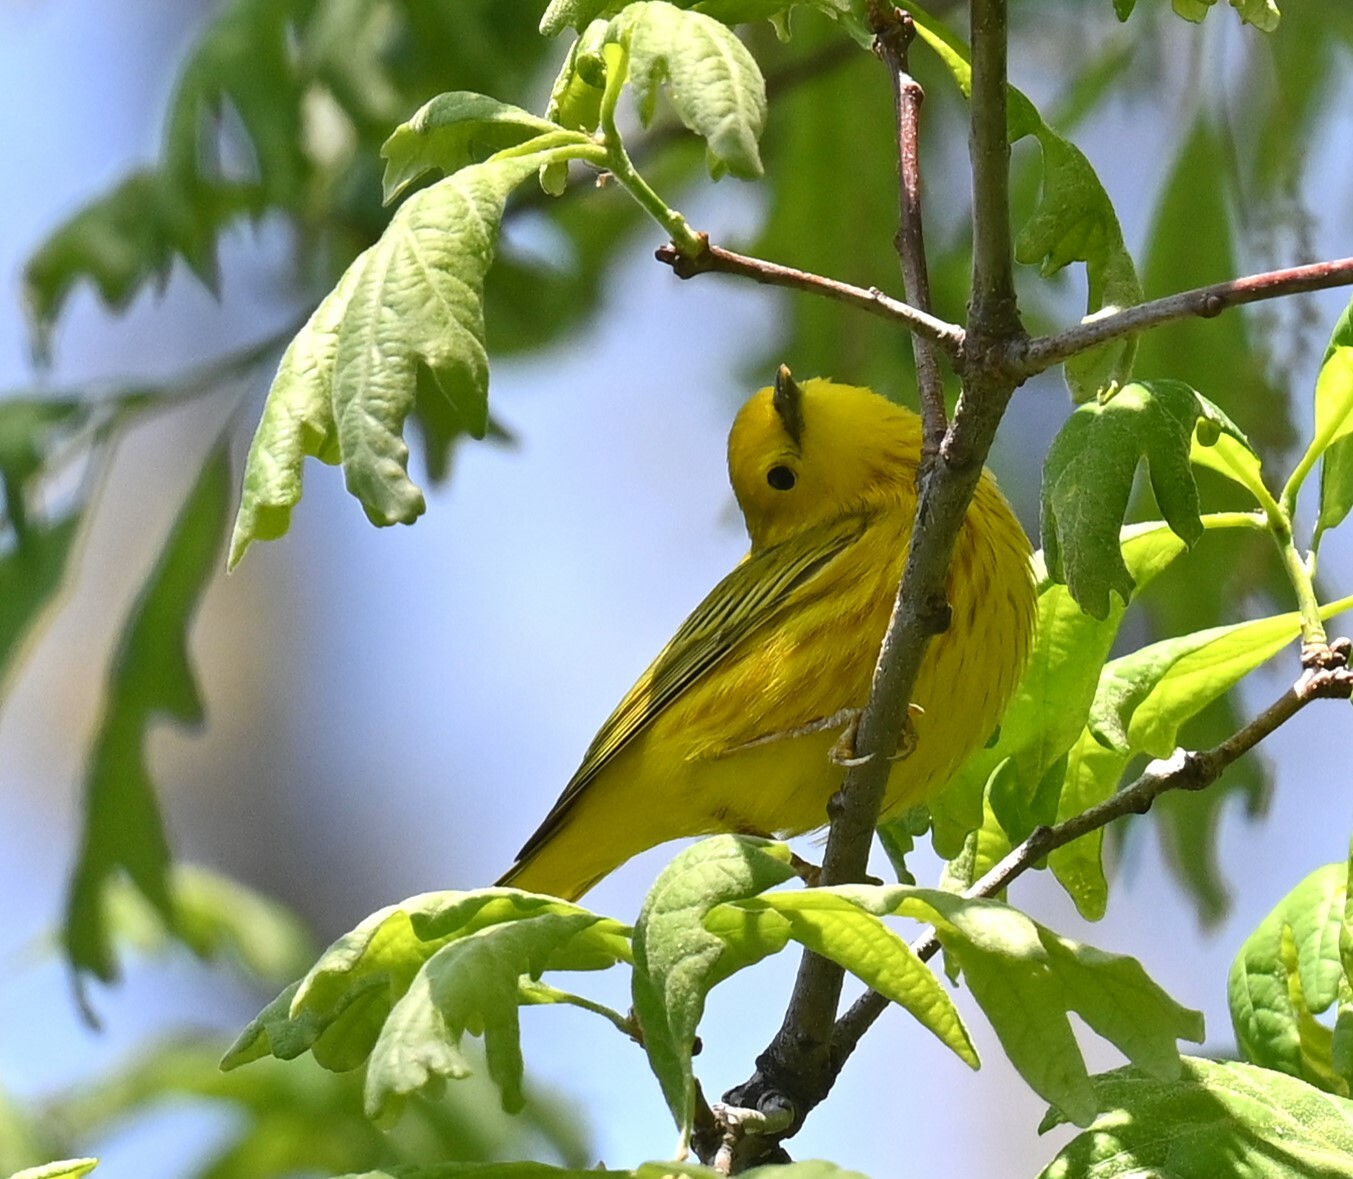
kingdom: Animalia
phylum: Chordata
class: Aves
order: Passeriformes
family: Parulidae
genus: Setophaga
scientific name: Setophaga petechia
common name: Yellow warbler
